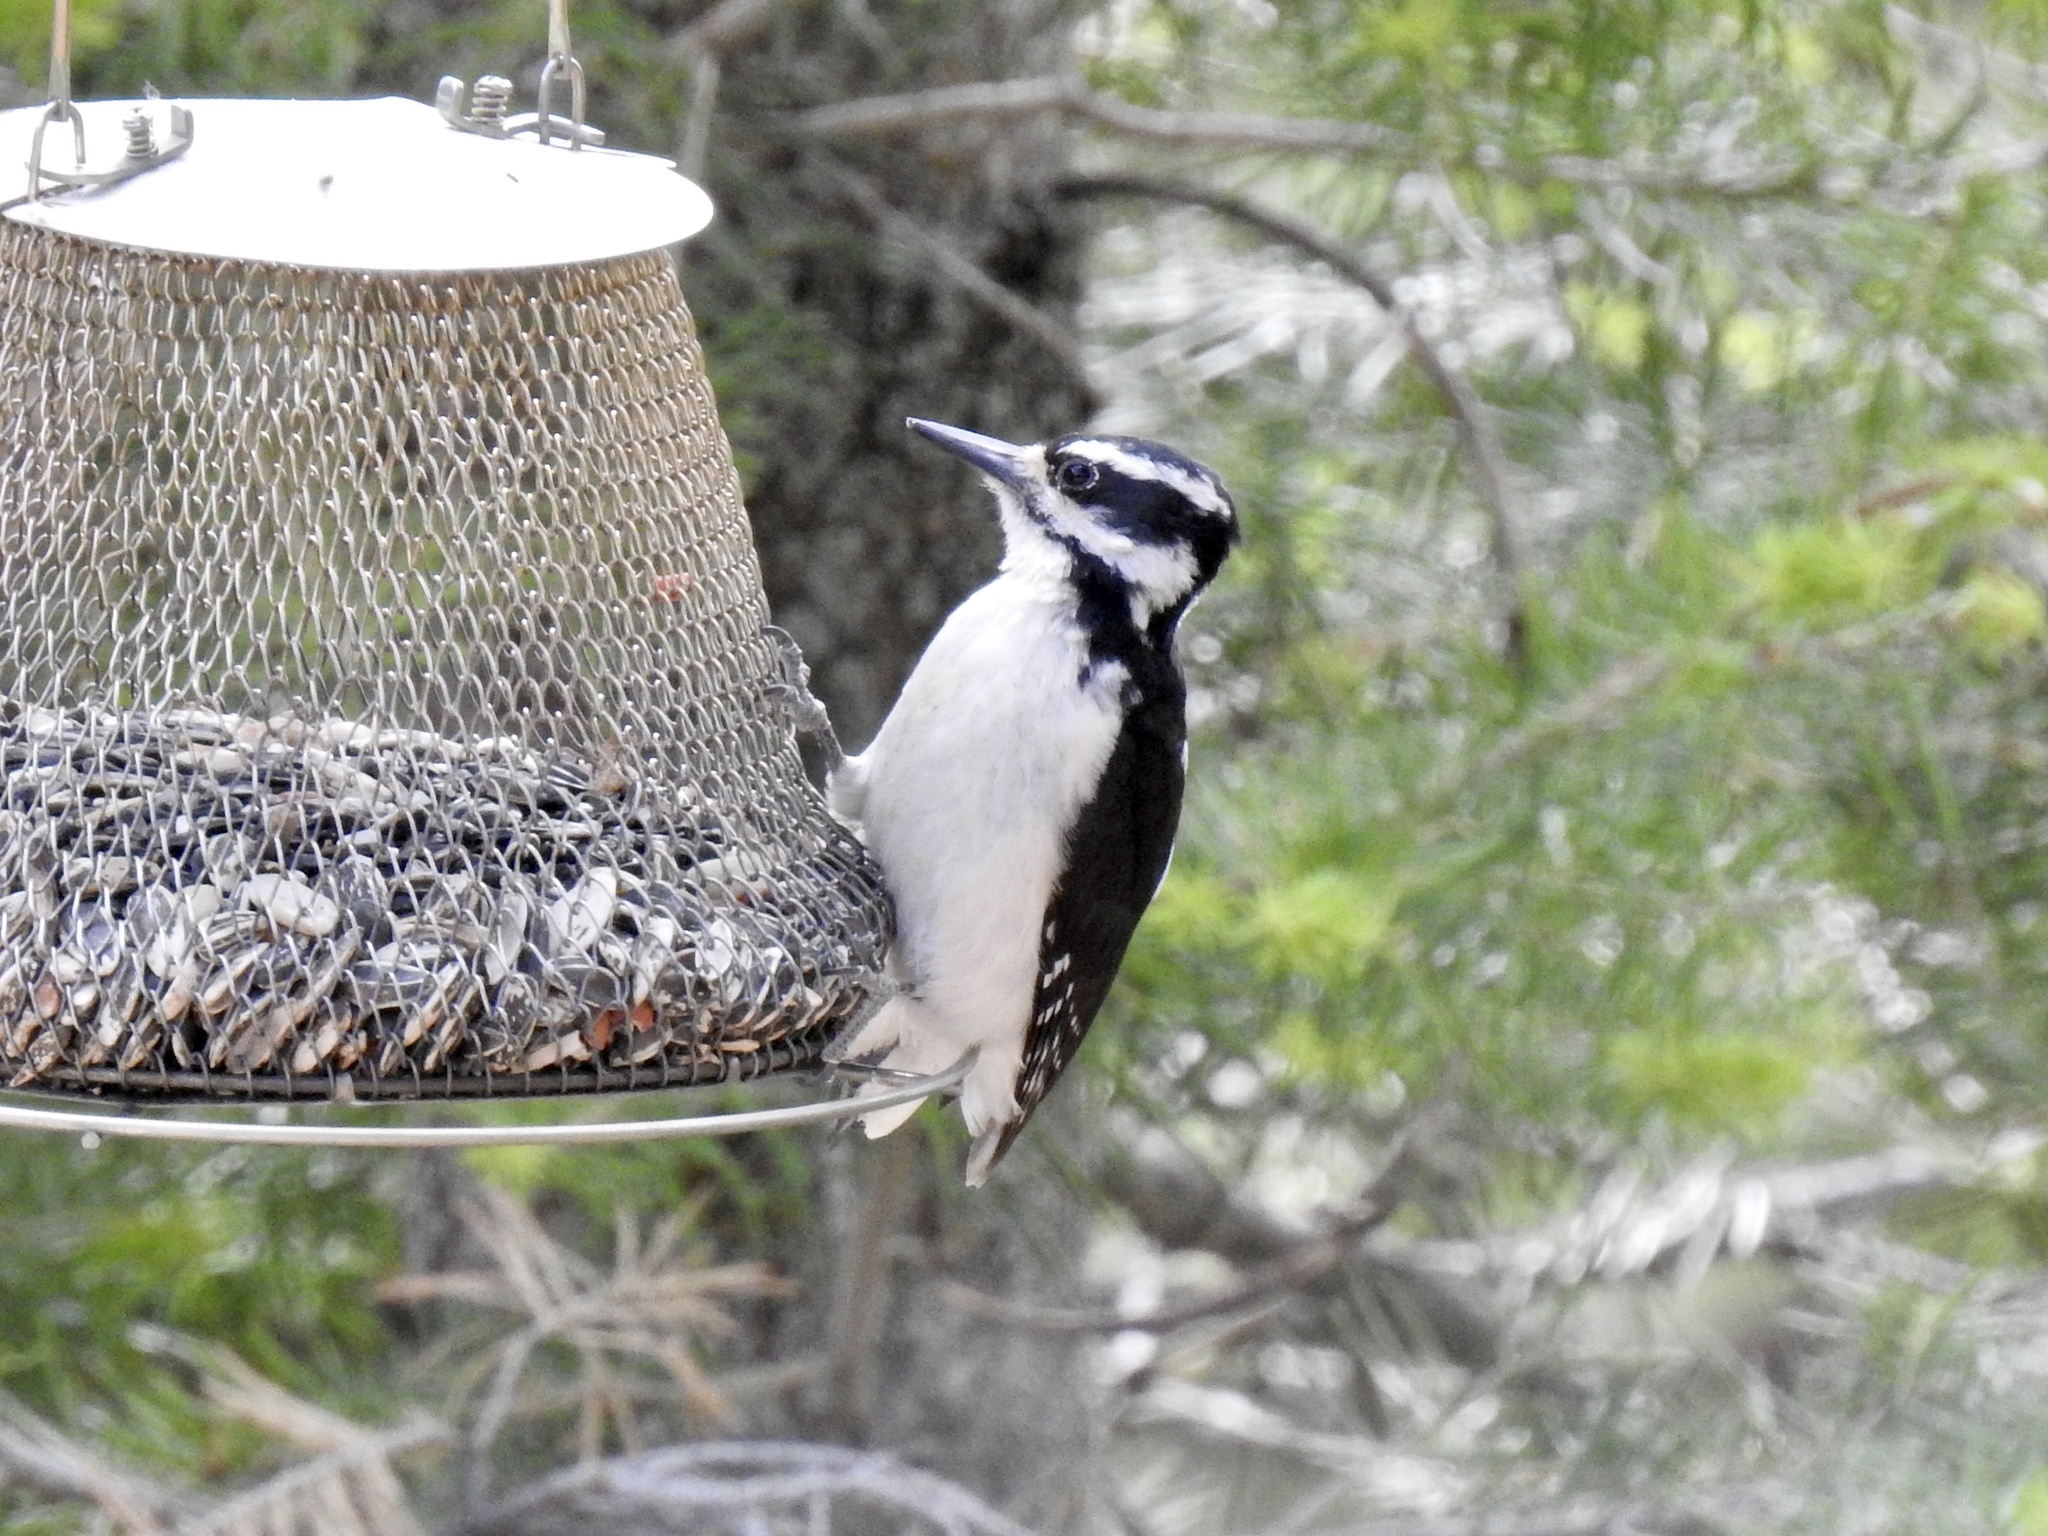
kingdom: Animalia
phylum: Chordata
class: Aves
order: Piciformes
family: Picidae
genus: Leuconotopicus
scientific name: Leuconotopicus villosus
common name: Hairy woodpecker
